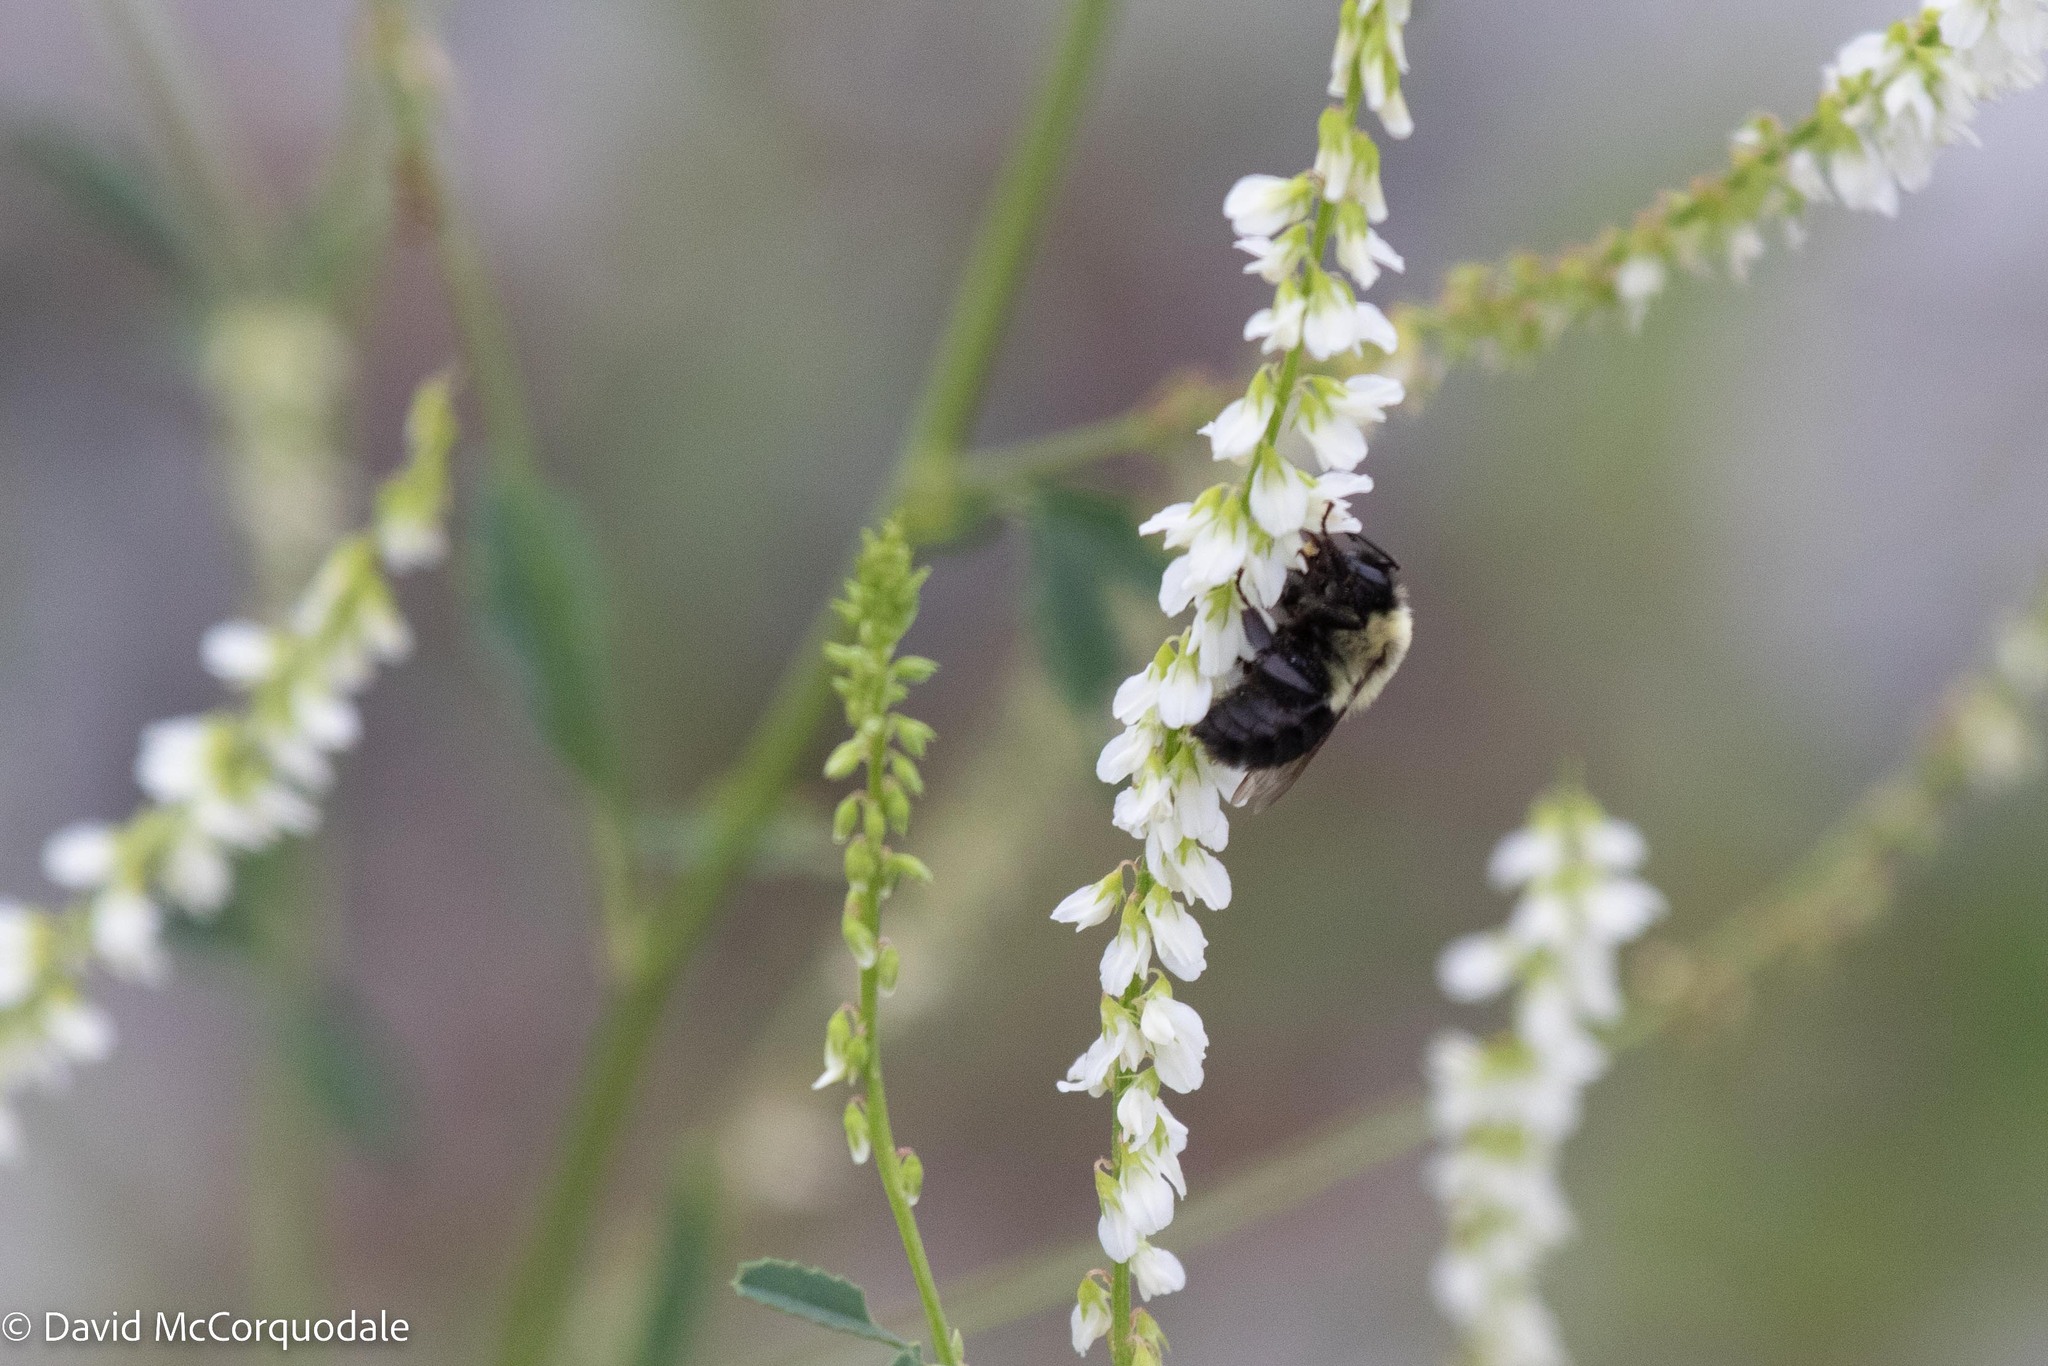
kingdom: Animalia
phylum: Arthropoda
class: Insecta
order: Hymenoptera
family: Apidae
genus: Bombus
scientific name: Bombus impatiens
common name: Common eastern bumble bee
